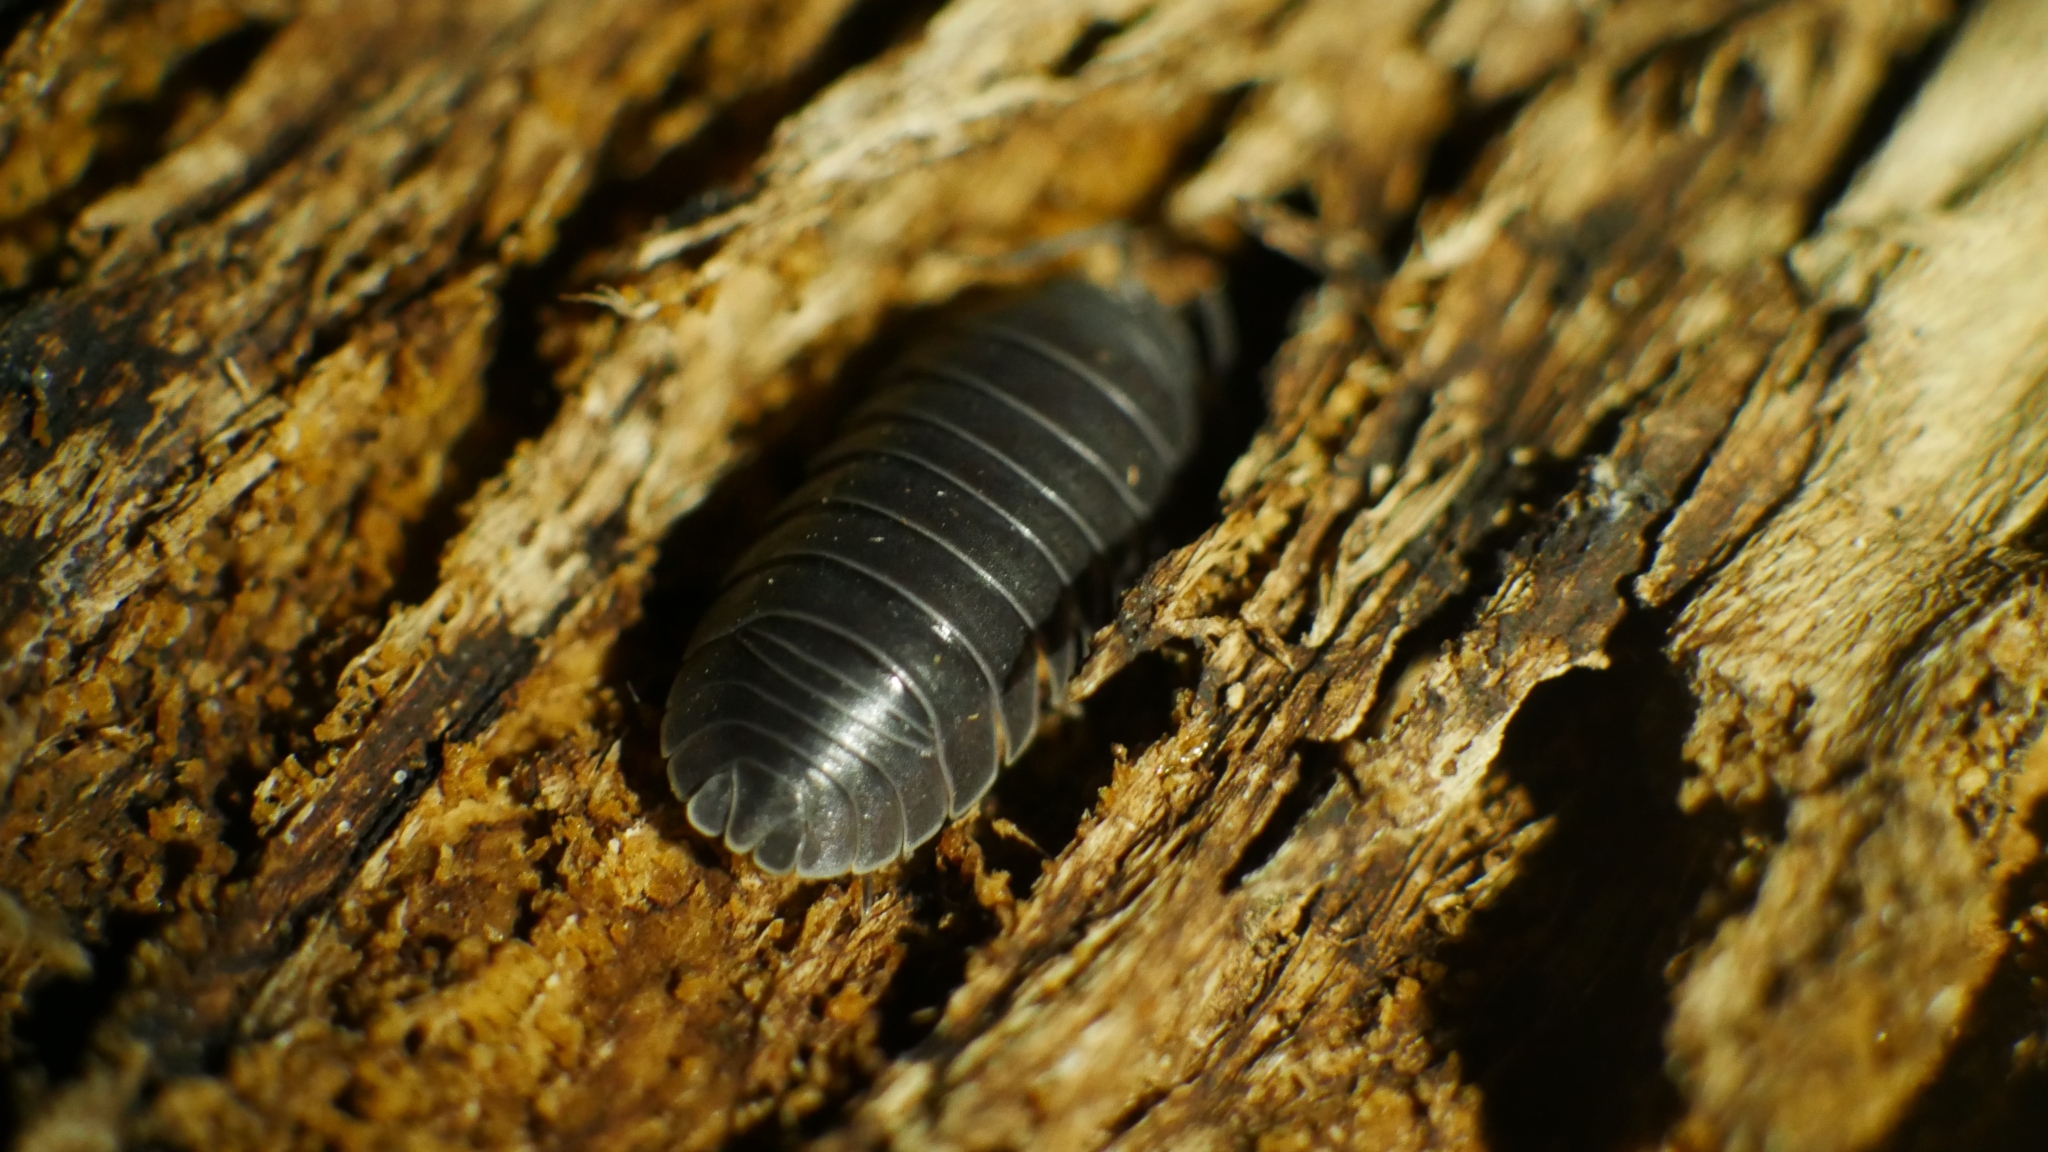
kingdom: Animalia
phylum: Arthropoda
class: Malacostraca
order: Isopoda
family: Armadillidiidae
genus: Armadillidium
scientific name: Armadillidium nasatum
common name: Isopod
